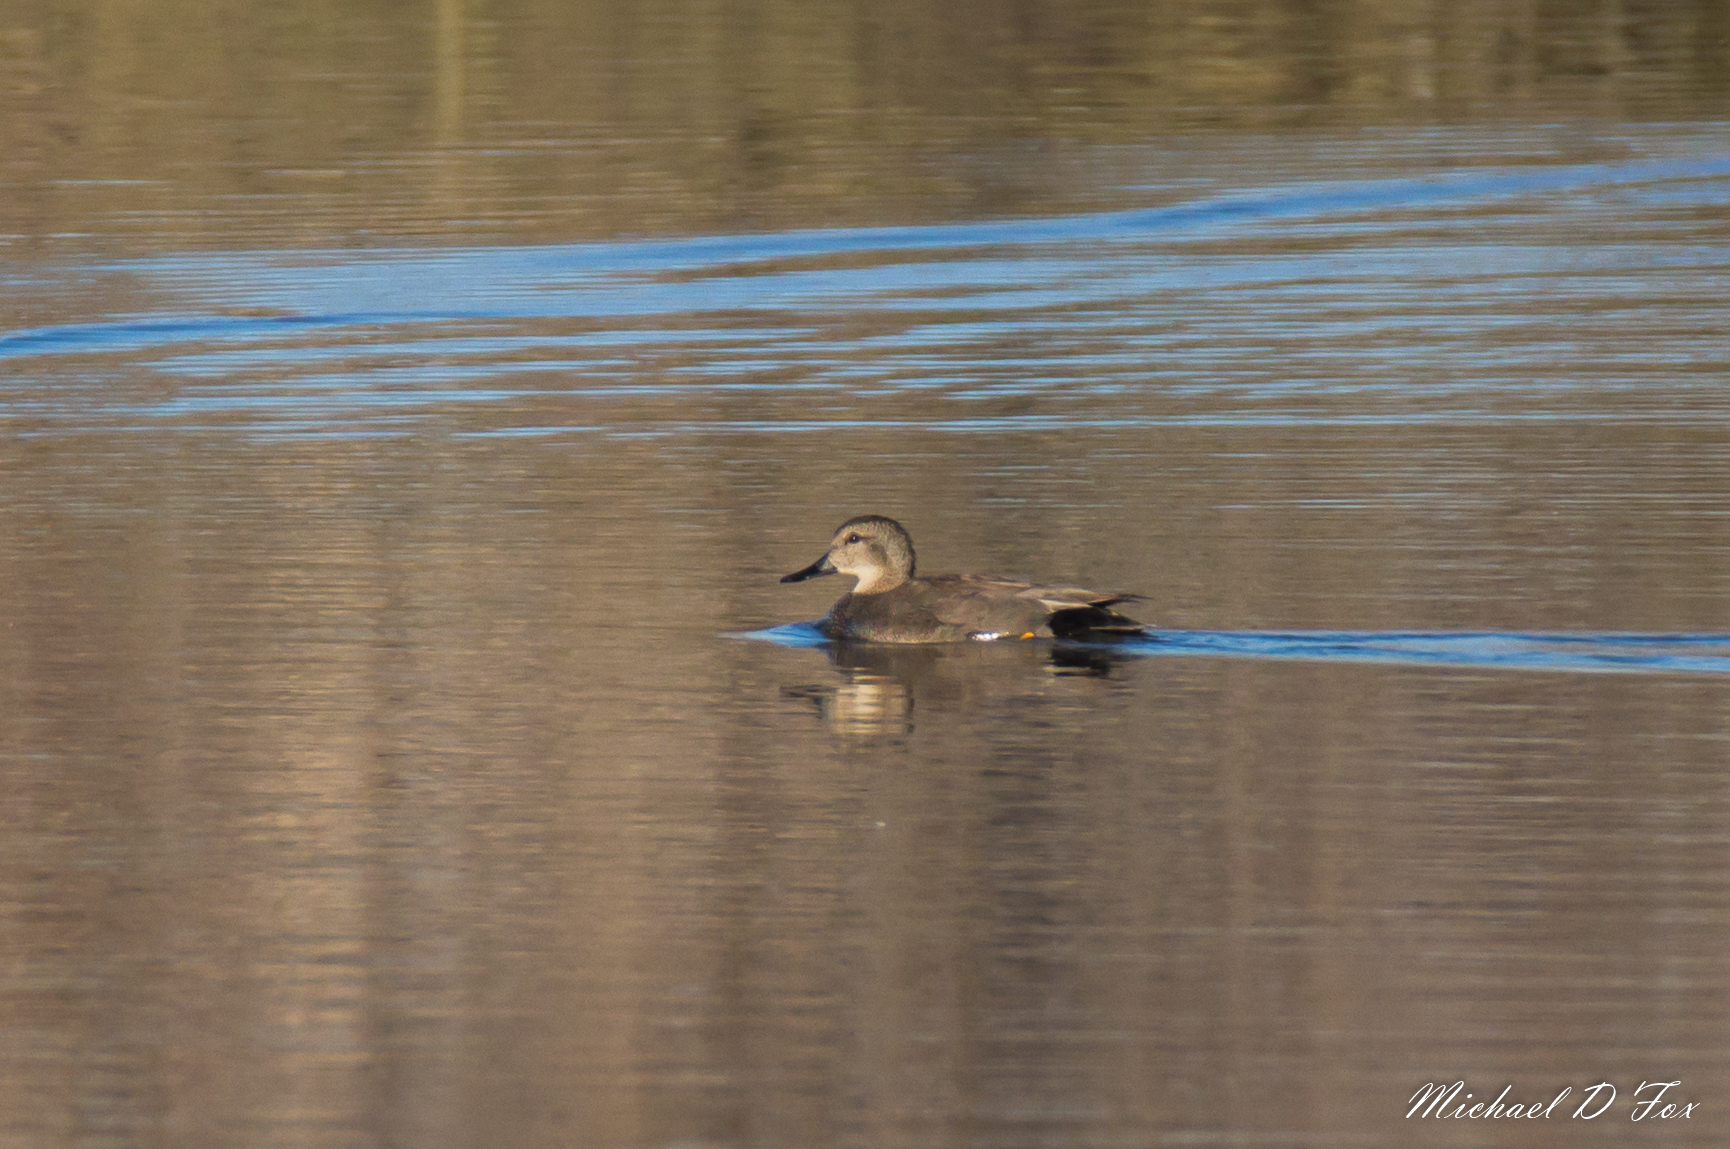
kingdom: Animalia
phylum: Chordata
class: Aves
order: Anseriformes
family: Anatidae
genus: Mareca
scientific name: Mareca strepera
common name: Gadwall
